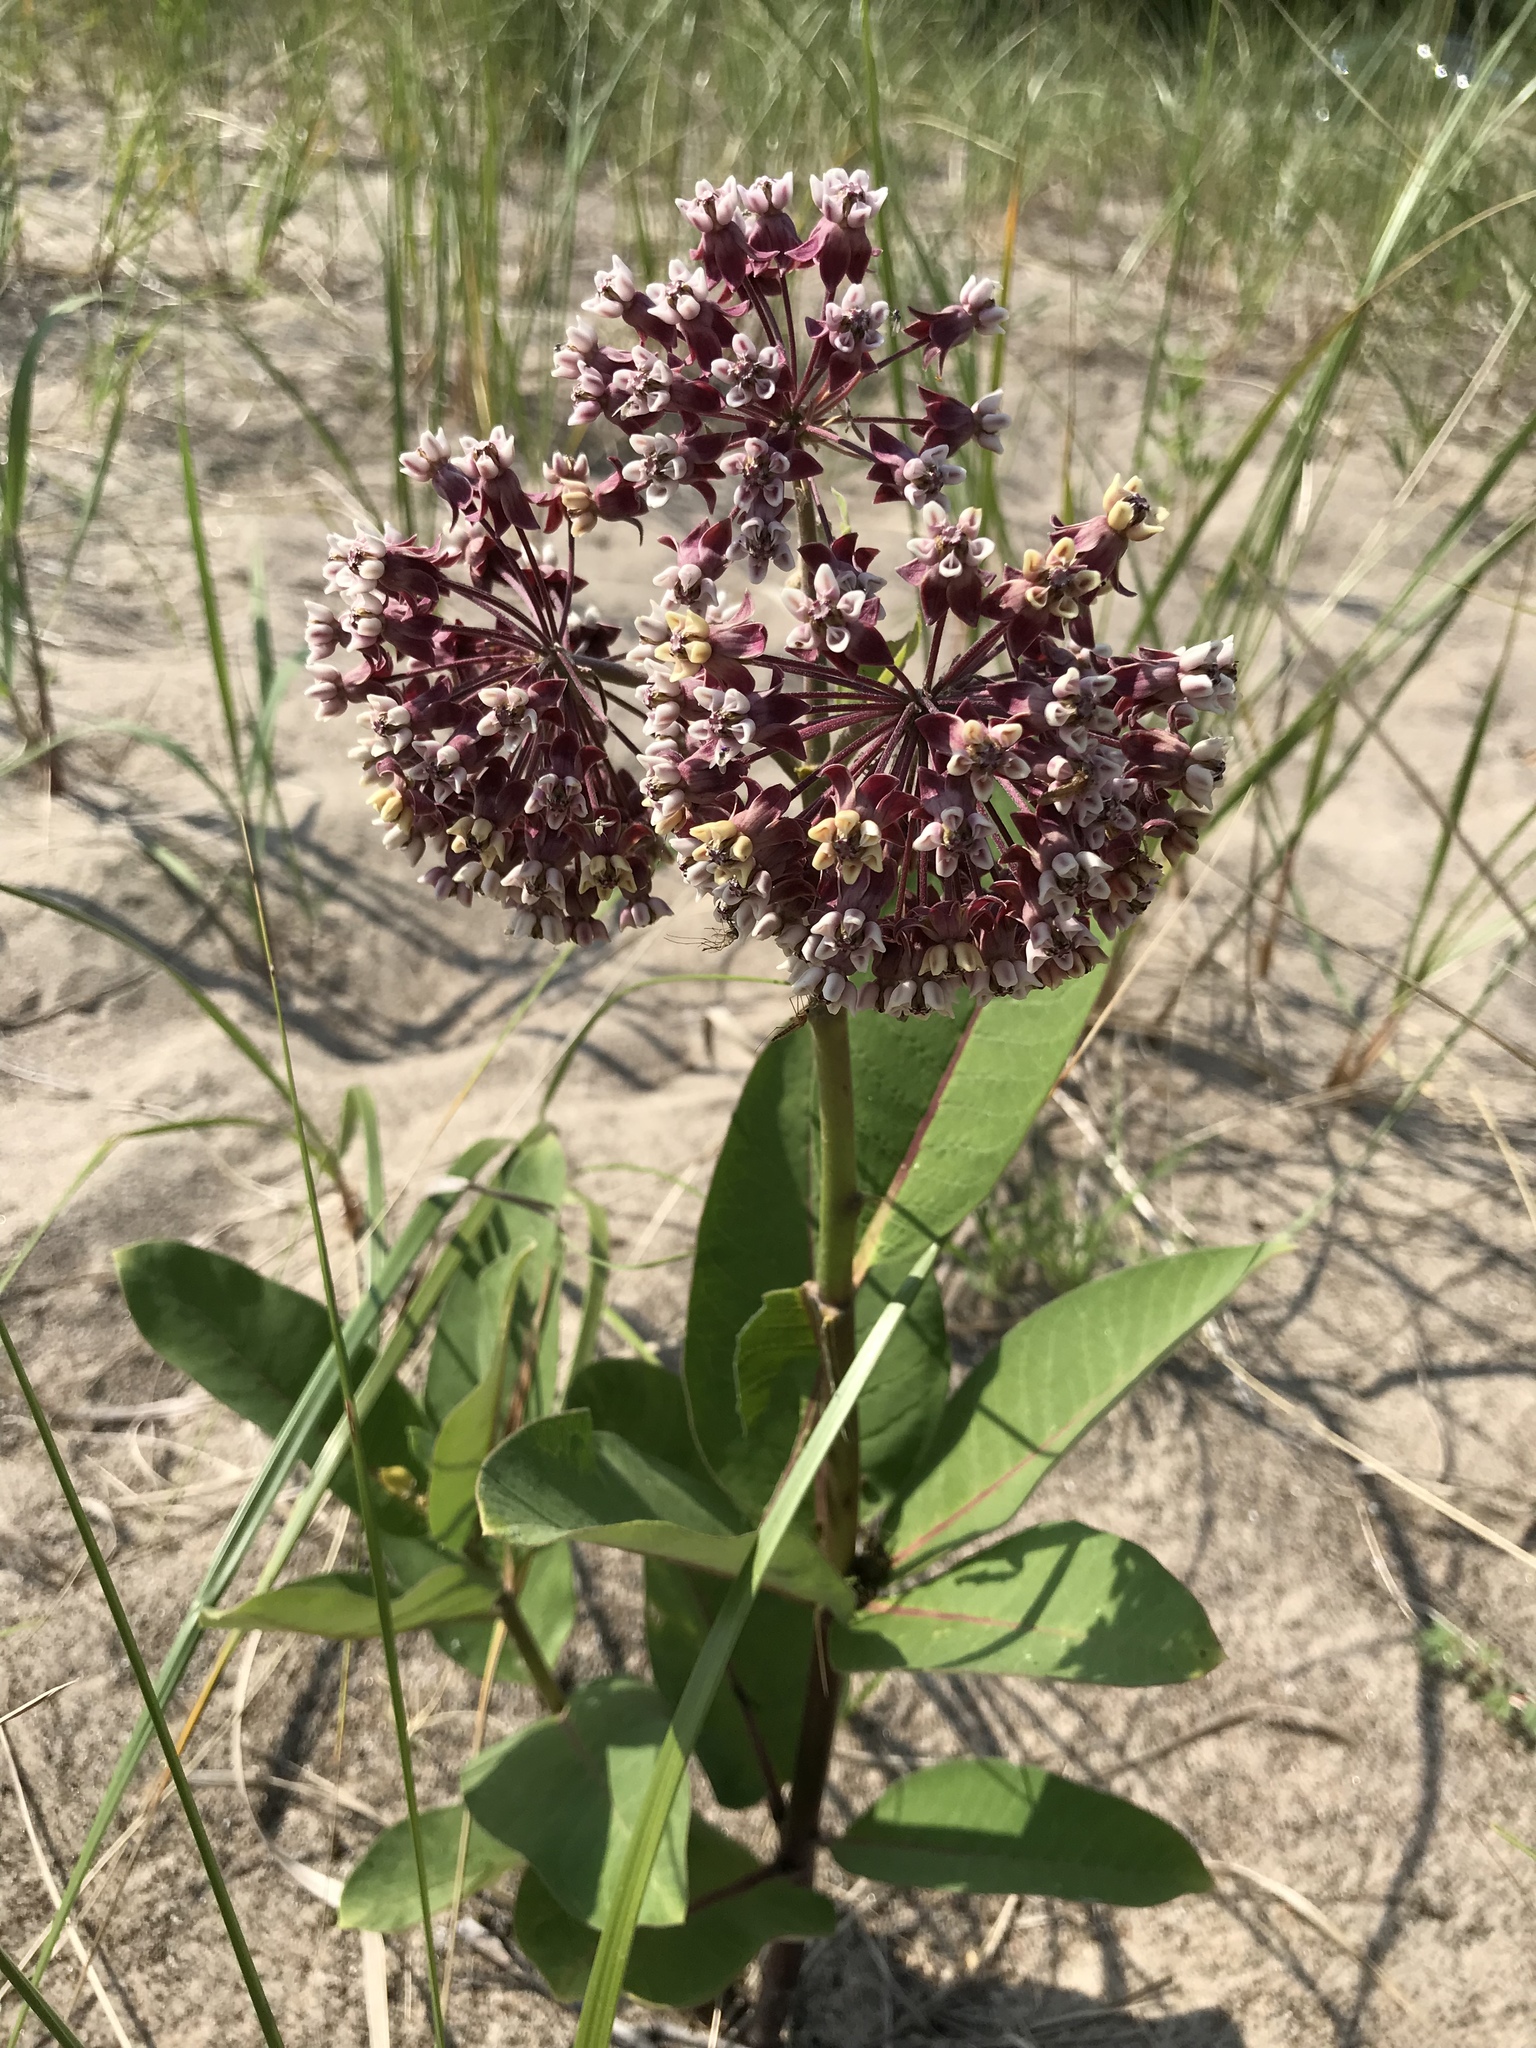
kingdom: Plantae
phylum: Tracheophyta
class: Magnoliopsida
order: Gentianales
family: Apocynaceae
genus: Asclepias
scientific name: Asclepias syriaca
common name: Common milkweed
